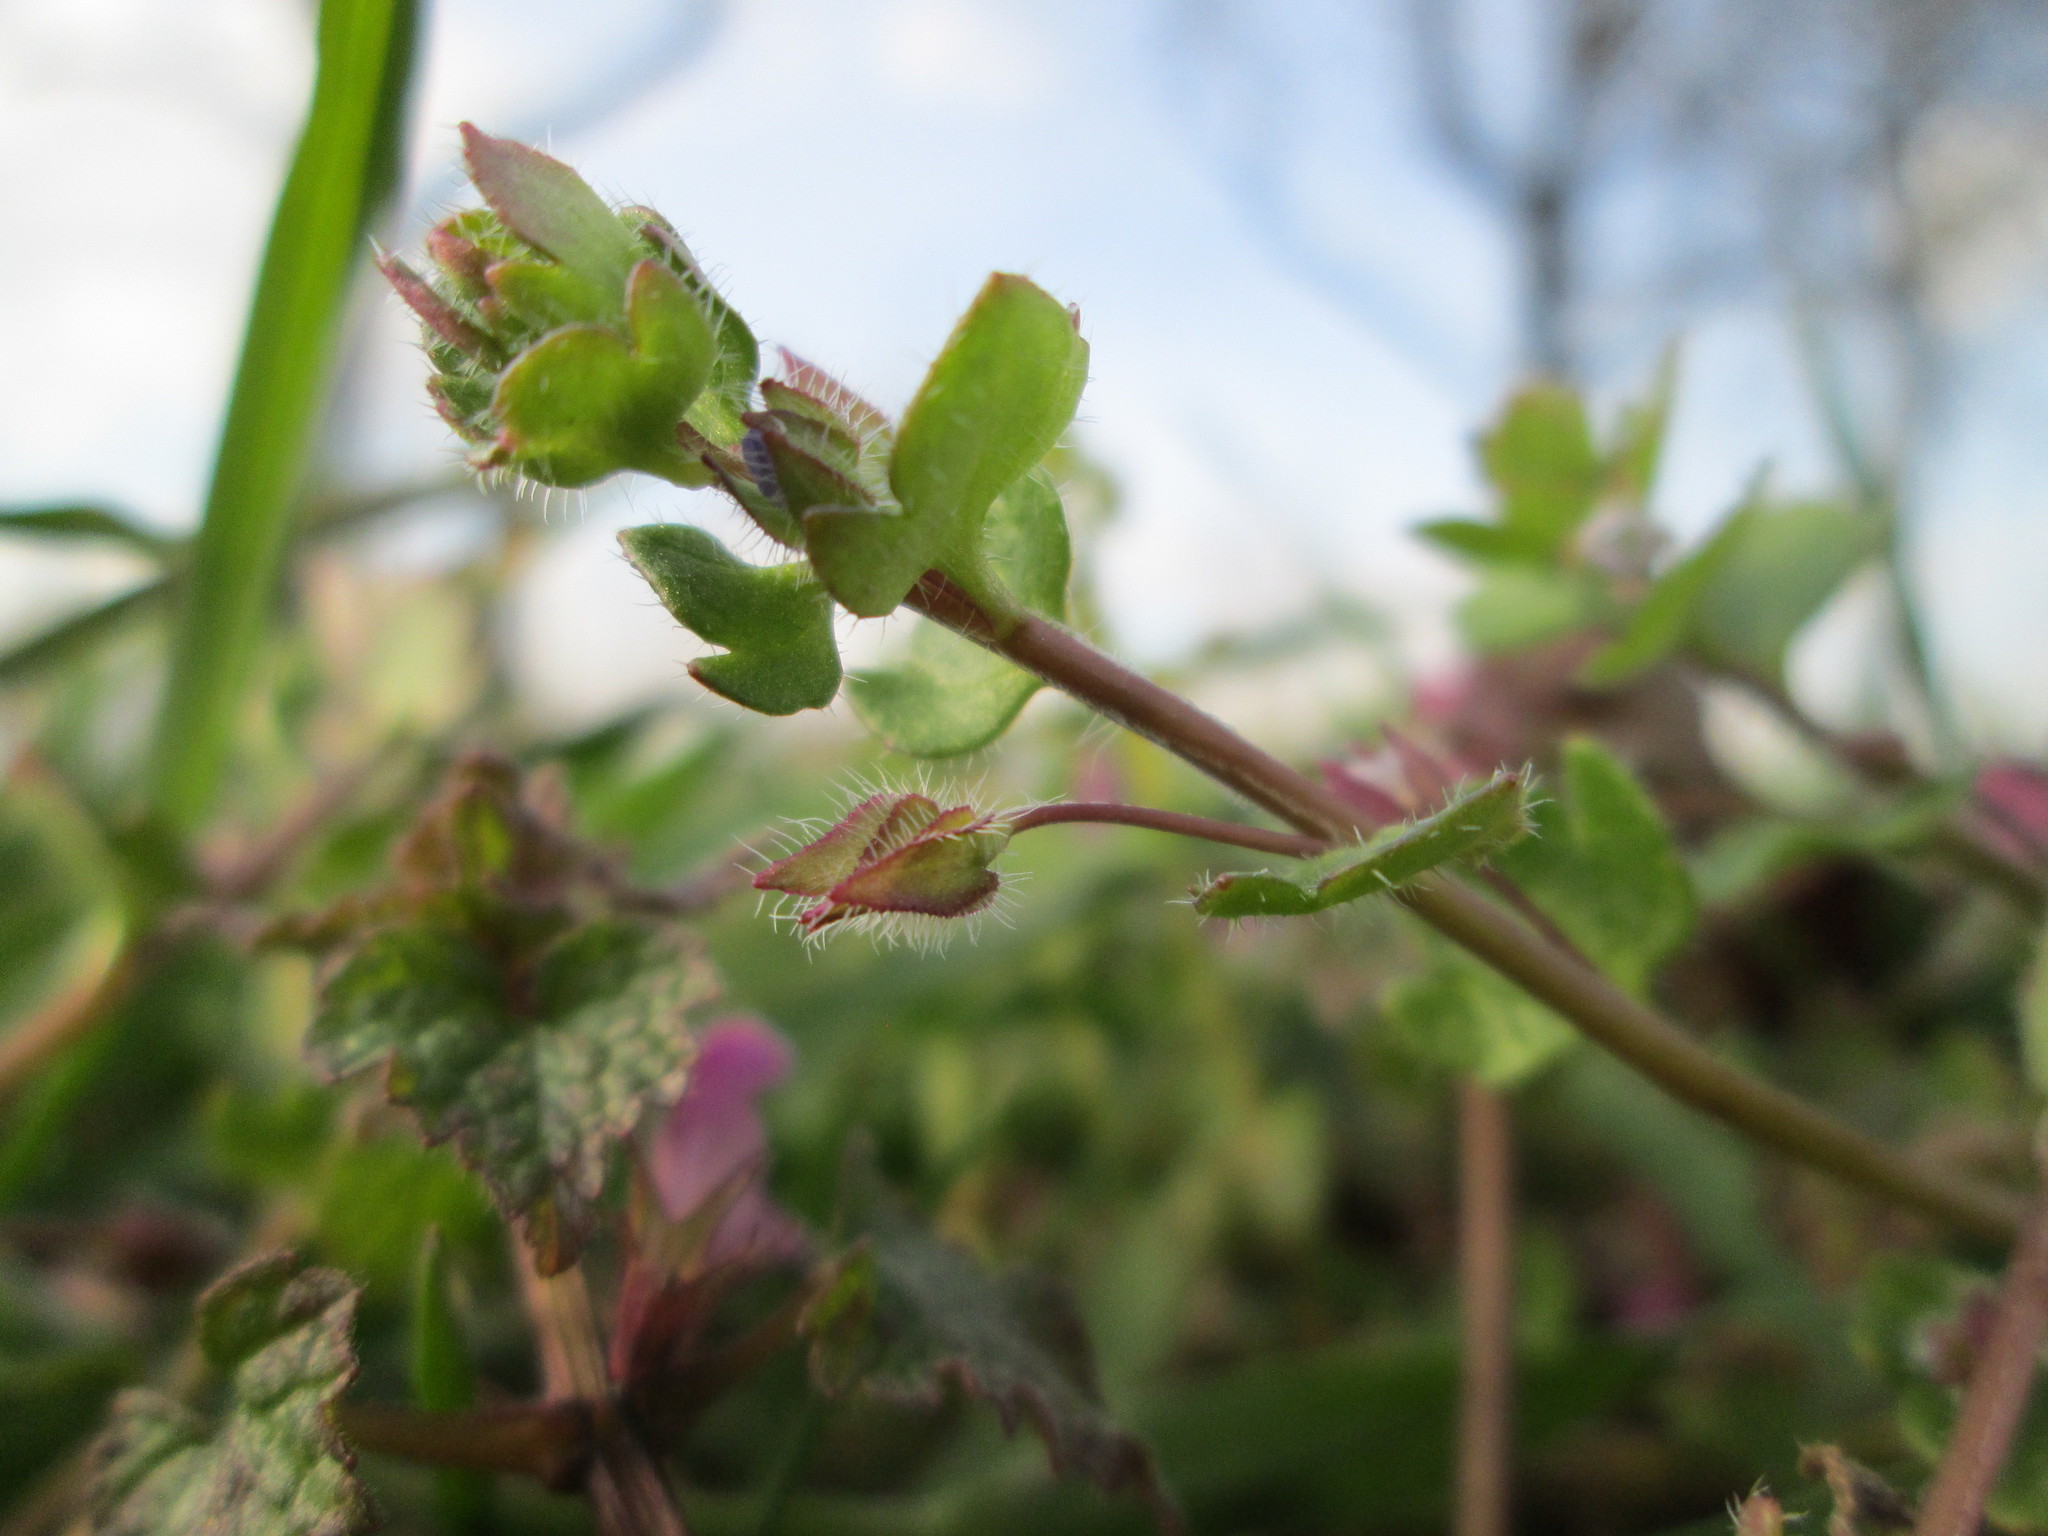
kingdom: Plantae
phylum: Tracheophyta
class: Magnoliopsida
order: Lamiales
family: Plantaginaceae
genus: Veronica
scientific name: Veronica hederifolia
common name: Ivy-leaved speedwell
